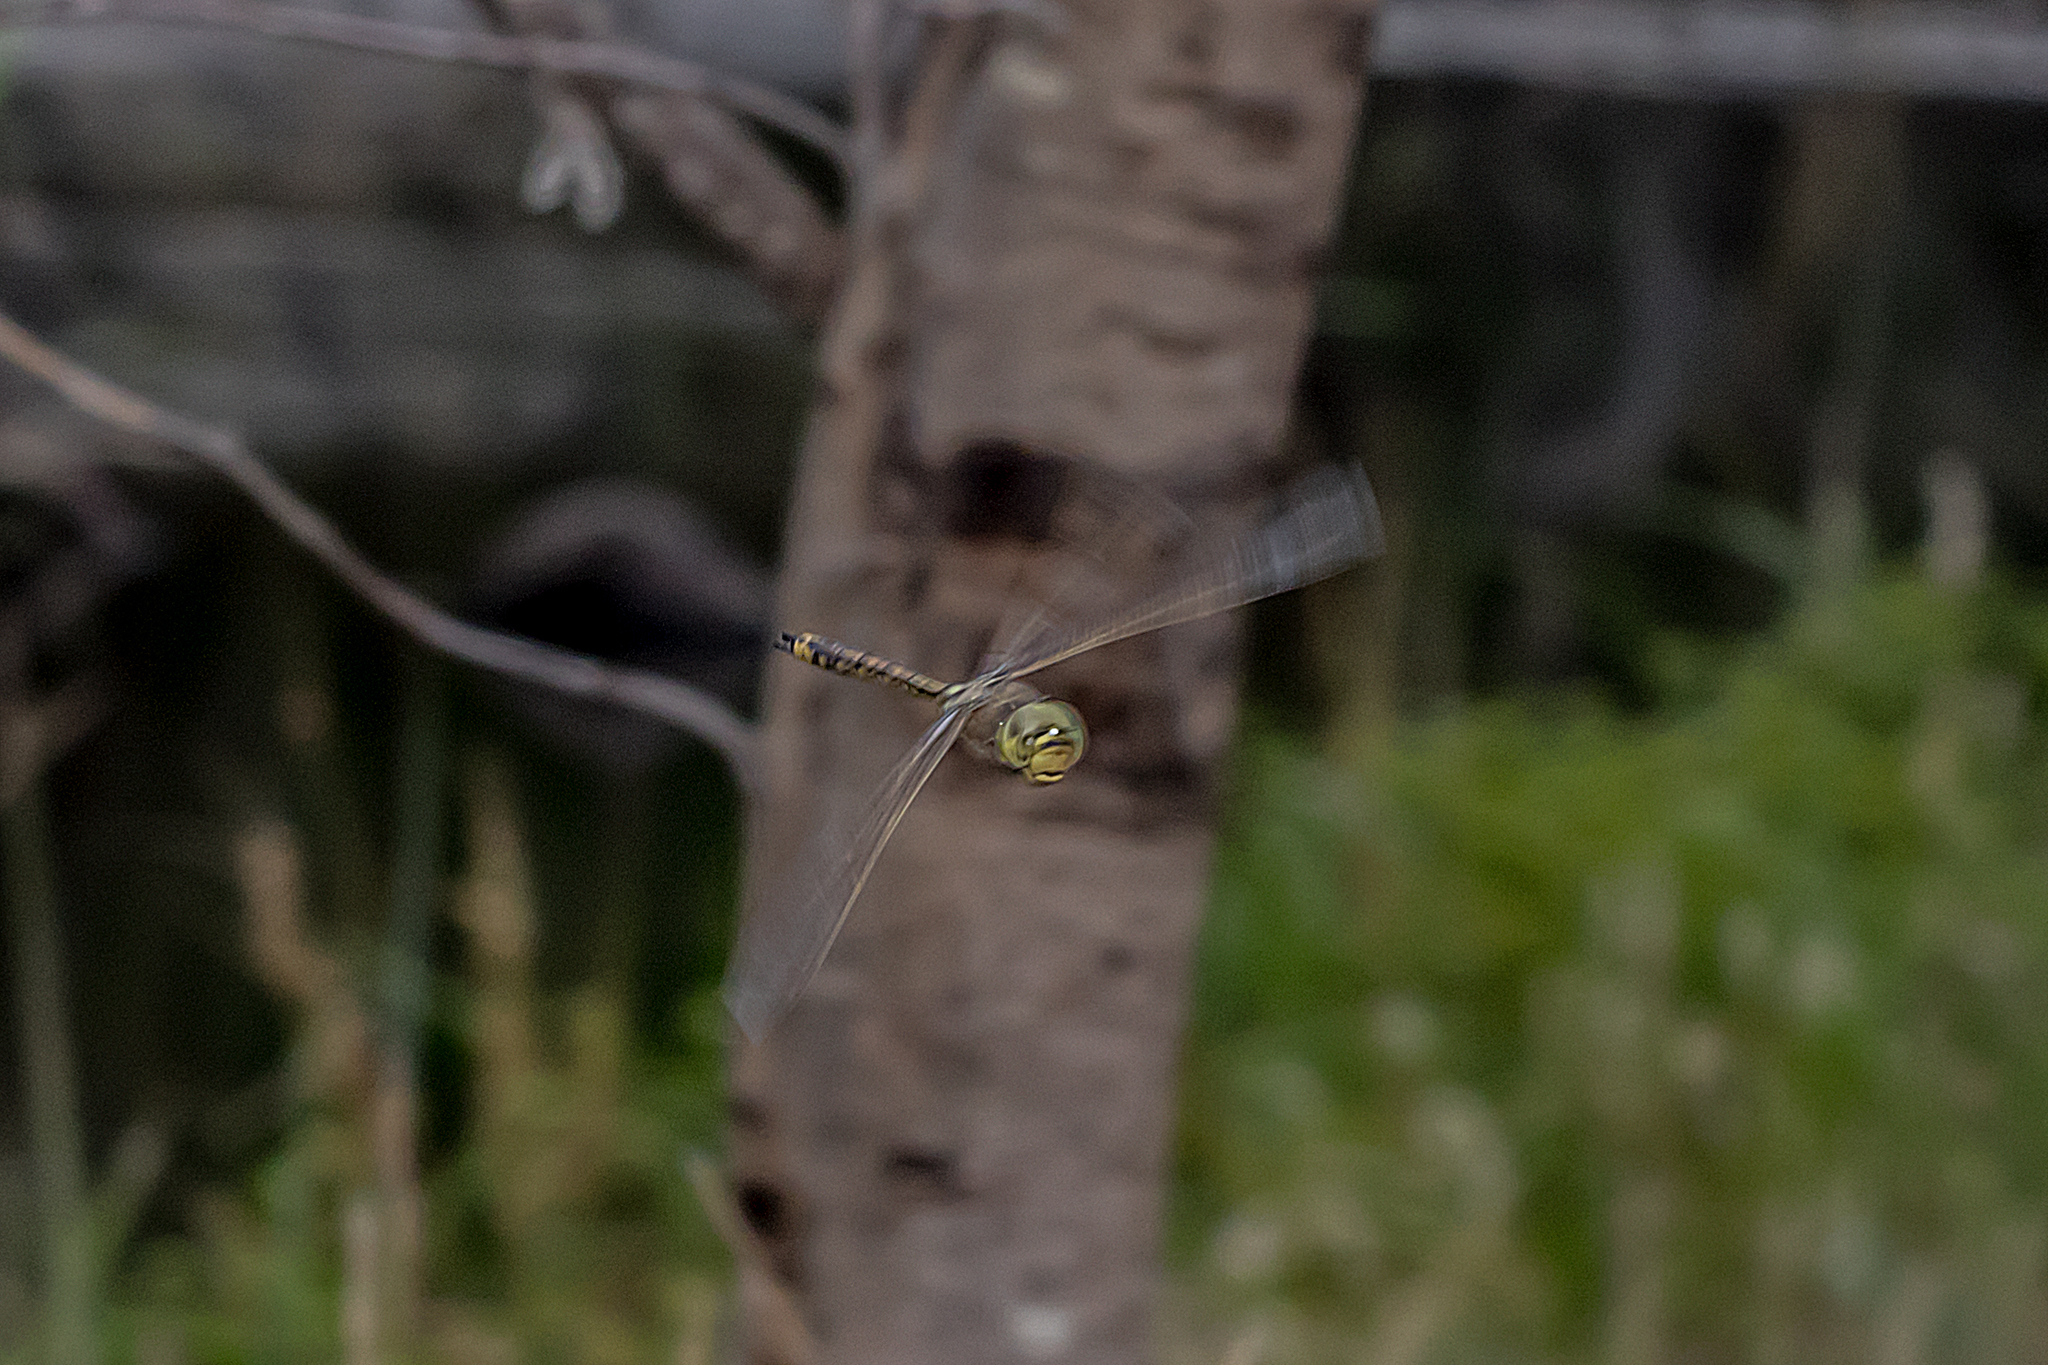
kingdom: Animalia
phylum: Arthropoda
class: Insecta
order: Odonata
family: Aeshnidae
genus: Anax
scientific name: Anax papuensis
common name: Australian emperor
